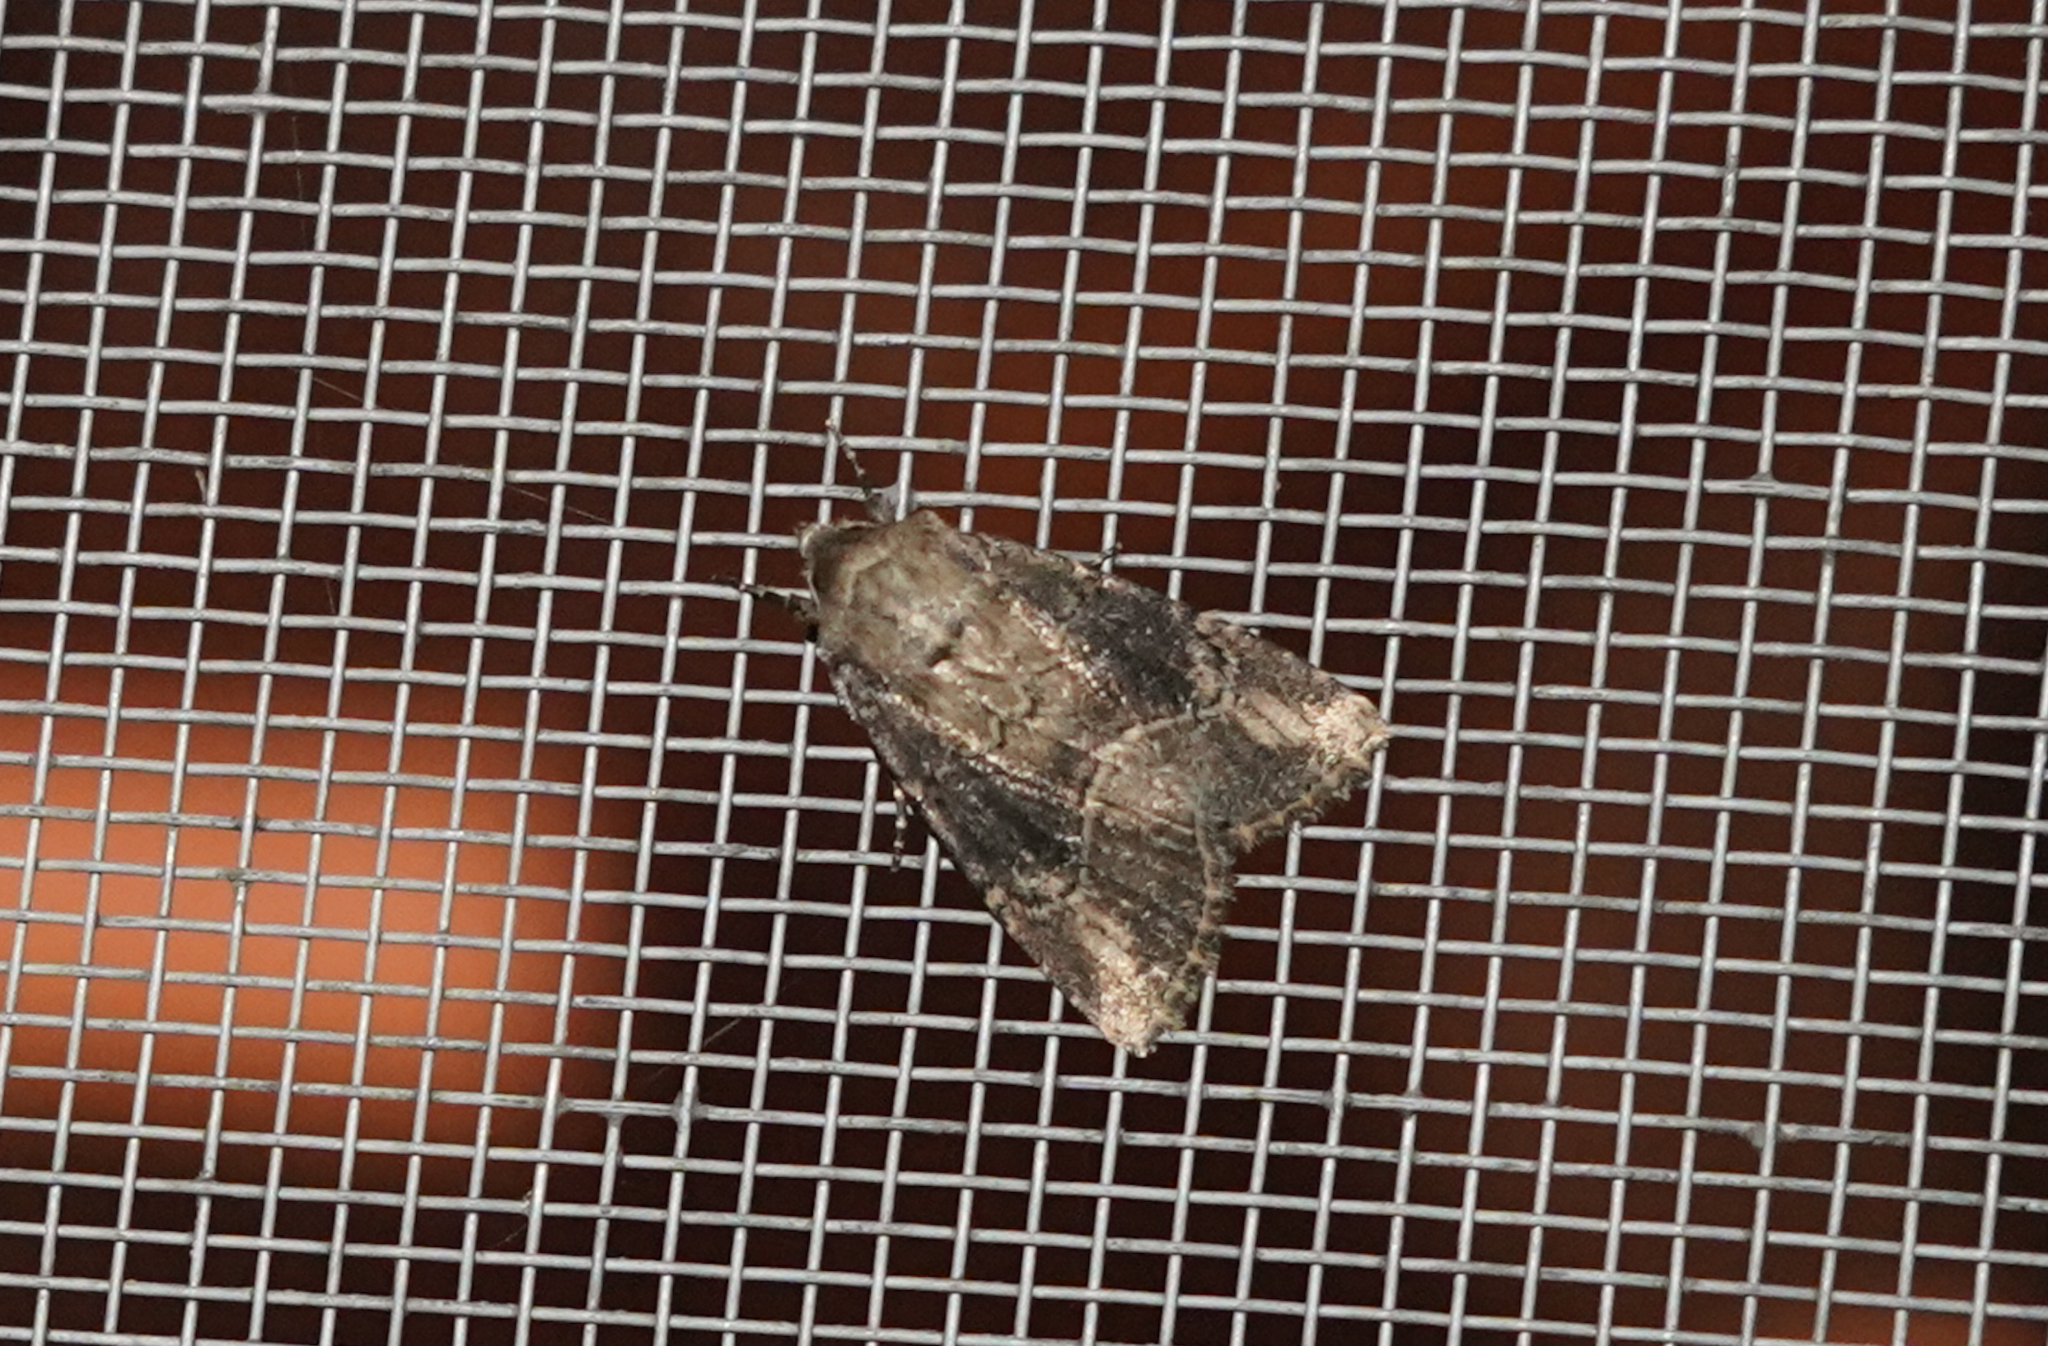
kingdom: Animalia
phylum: Arthropoda
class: Insecta
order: Lepidoptera
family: Noctuidae
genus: Anhimella
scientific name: Anhimella contrahens
